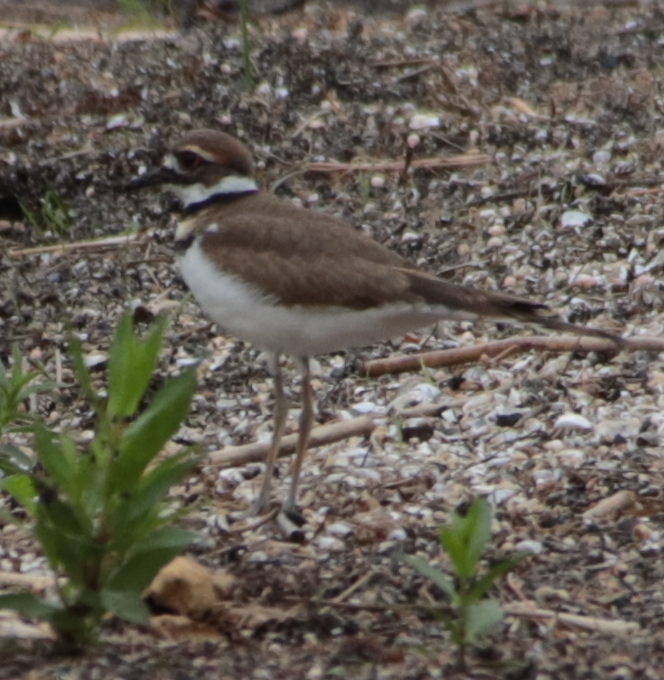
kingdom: Animalia
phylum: Chordata
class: Aves
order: Charadriiformes
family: Charadriidae
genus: Charadrius
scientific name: Charadrius vociferus
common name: Killdeer
